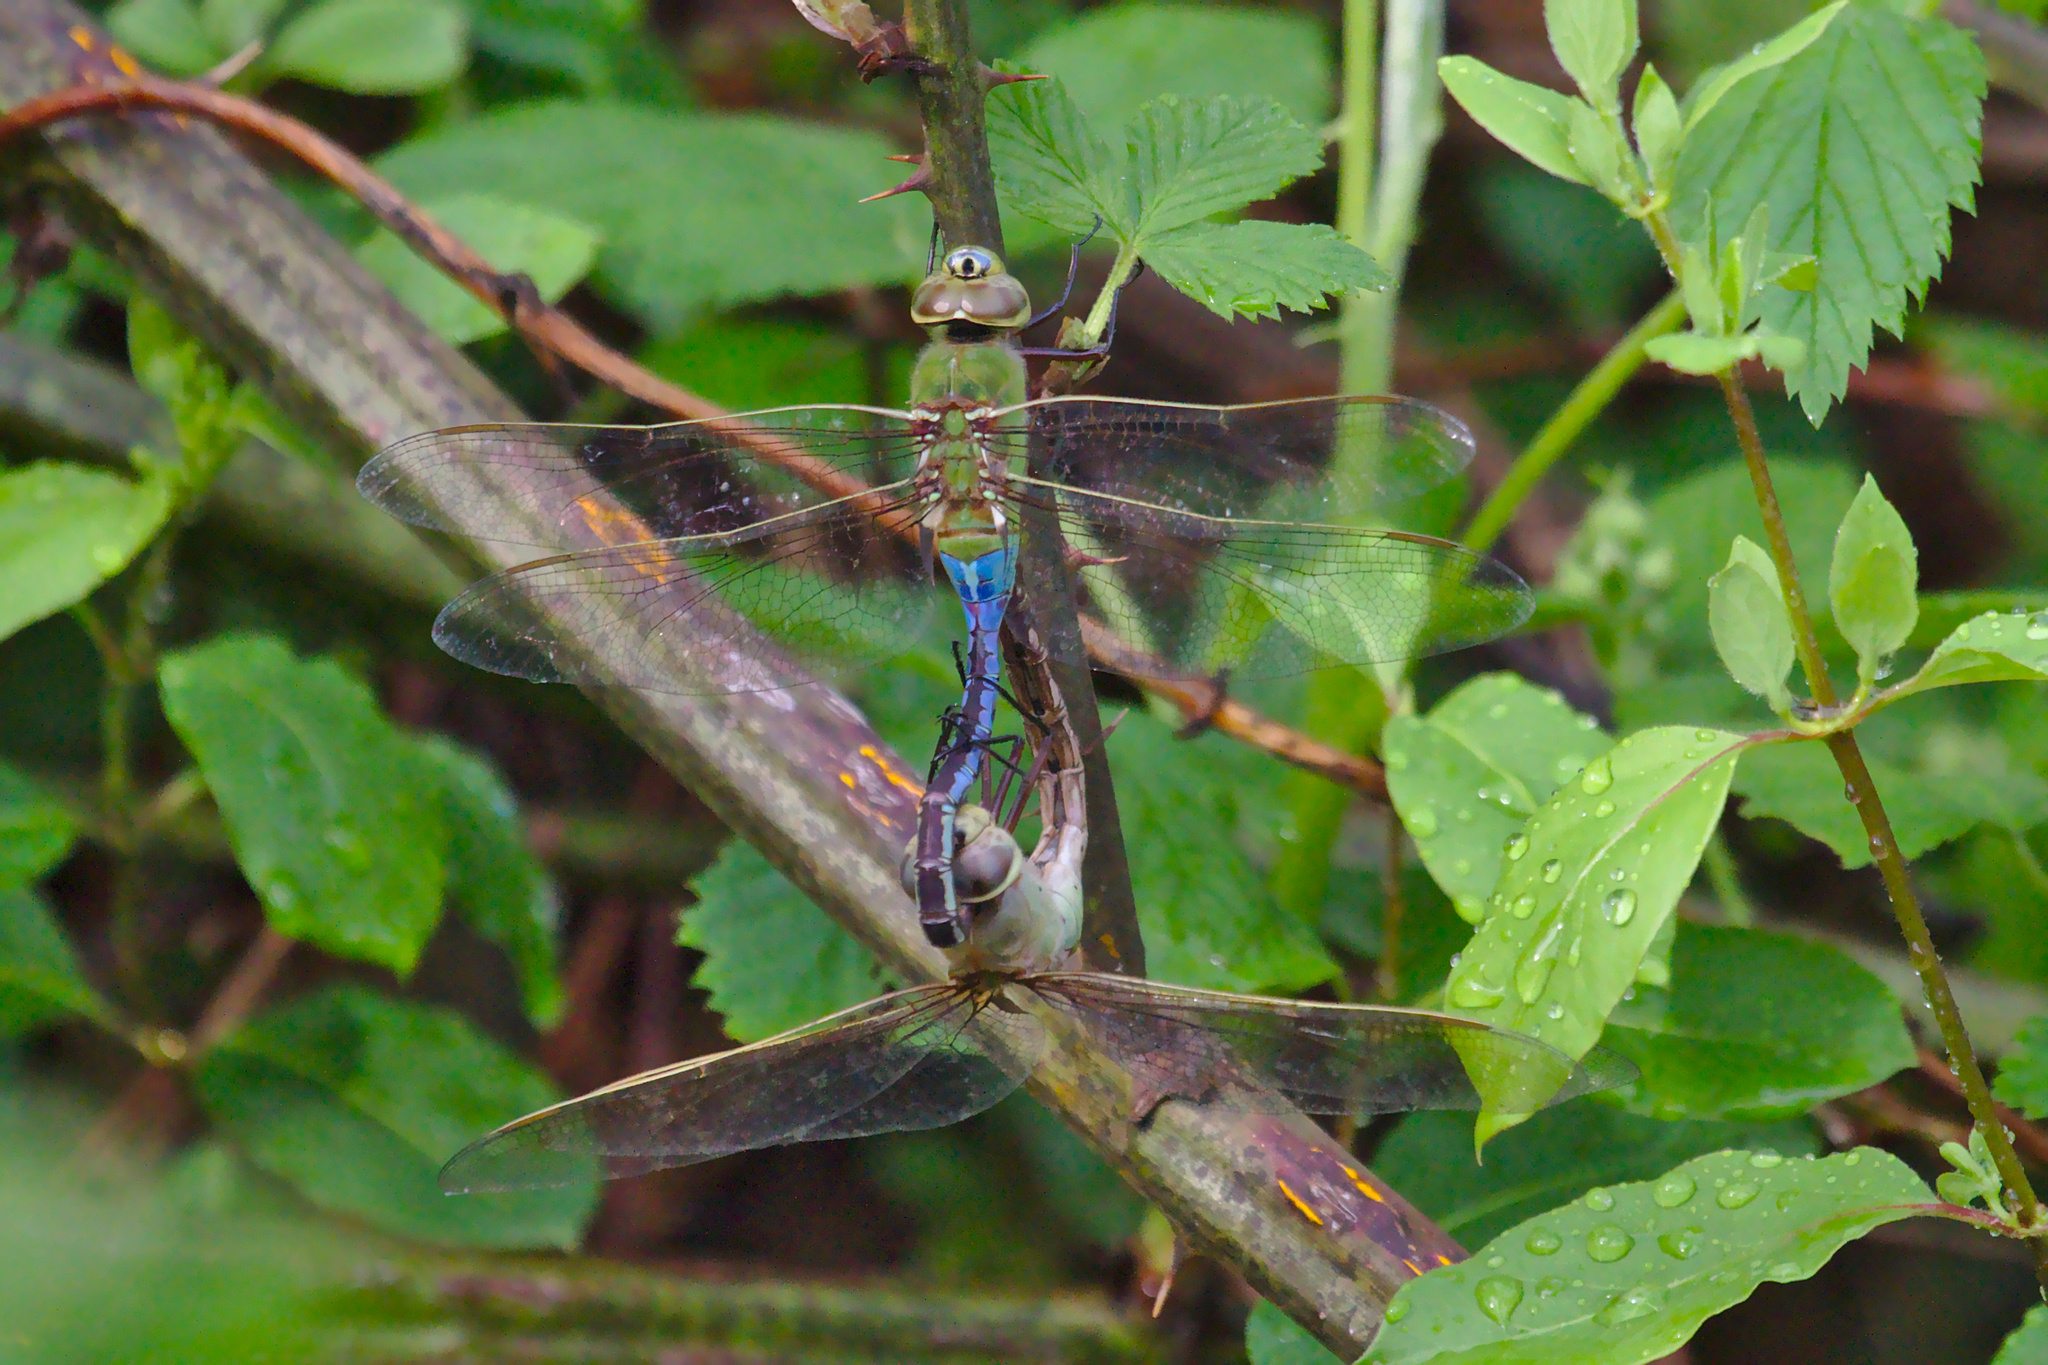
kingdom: Animalia
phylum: Arthropoda
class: Insecta
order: Odonata
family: Aeshnidae
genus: Anax
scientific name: Anax junius
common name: Common green darner
